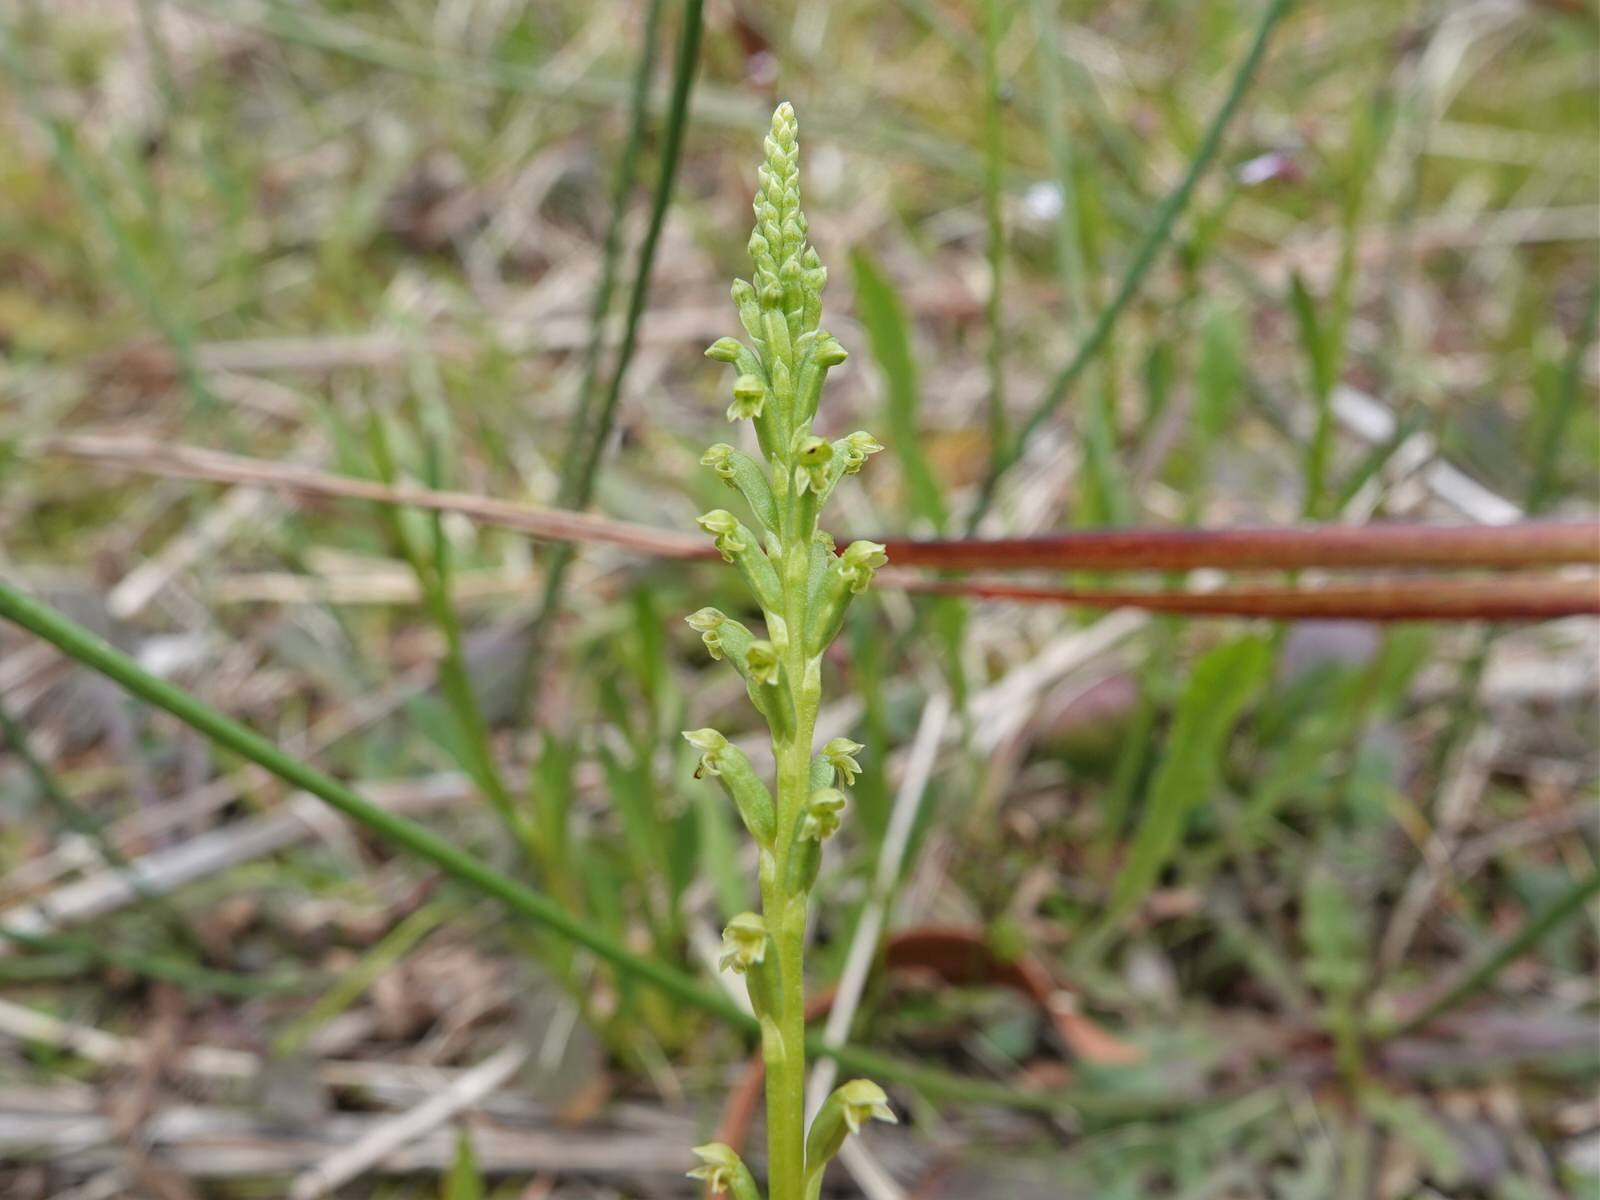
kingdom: Plantae
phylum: Tracheophyta
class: Liliopsida
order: Asparagales
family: Orchidaceae
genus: Microtis
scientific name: Microtis unifolia
